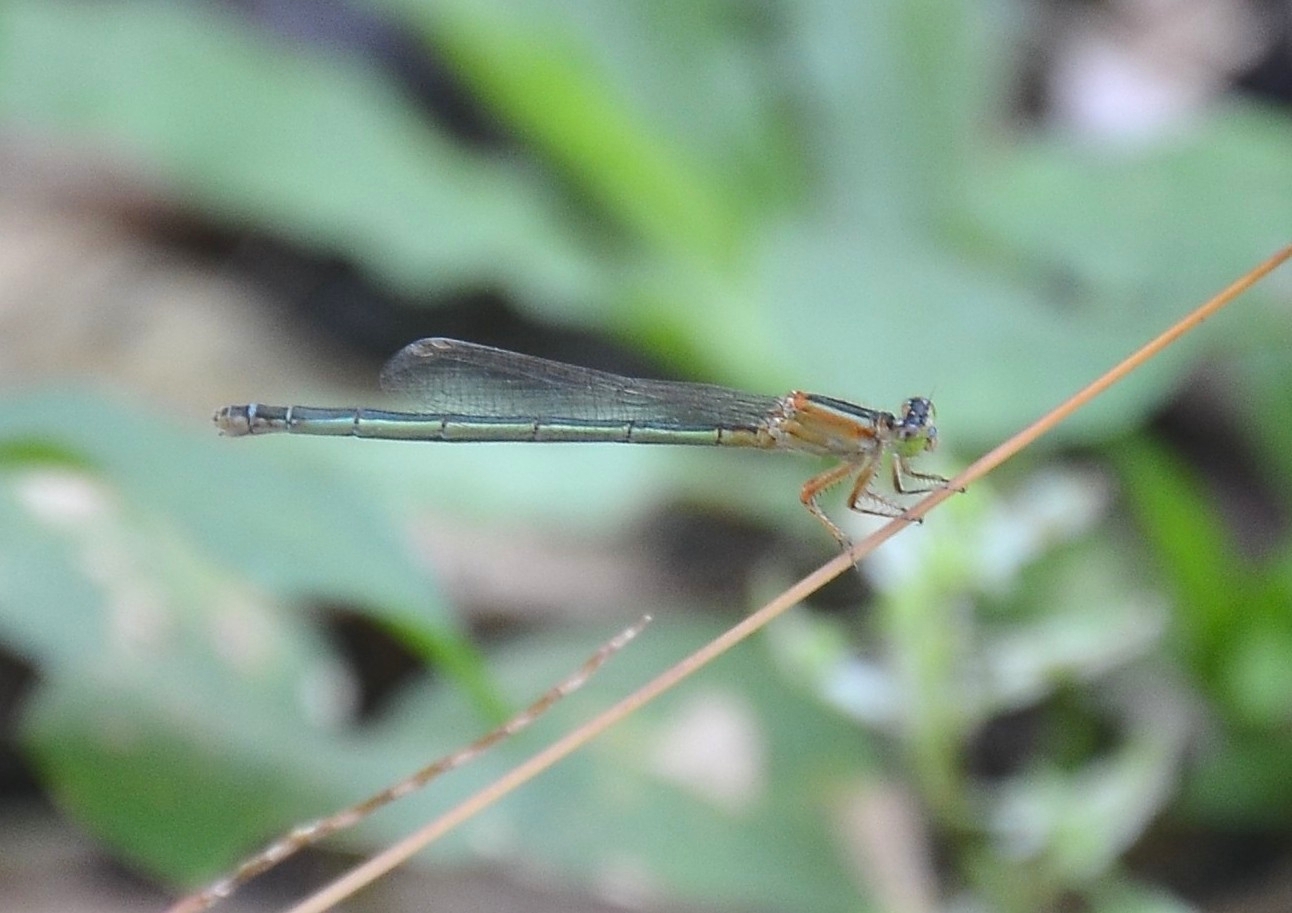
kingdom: Animalia
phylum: Arthropoda
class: Insecta
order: Odonata
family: Coenagrionidae
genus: Ischnura
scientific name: Ischnura senegalensis
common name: Tropical bluetail
